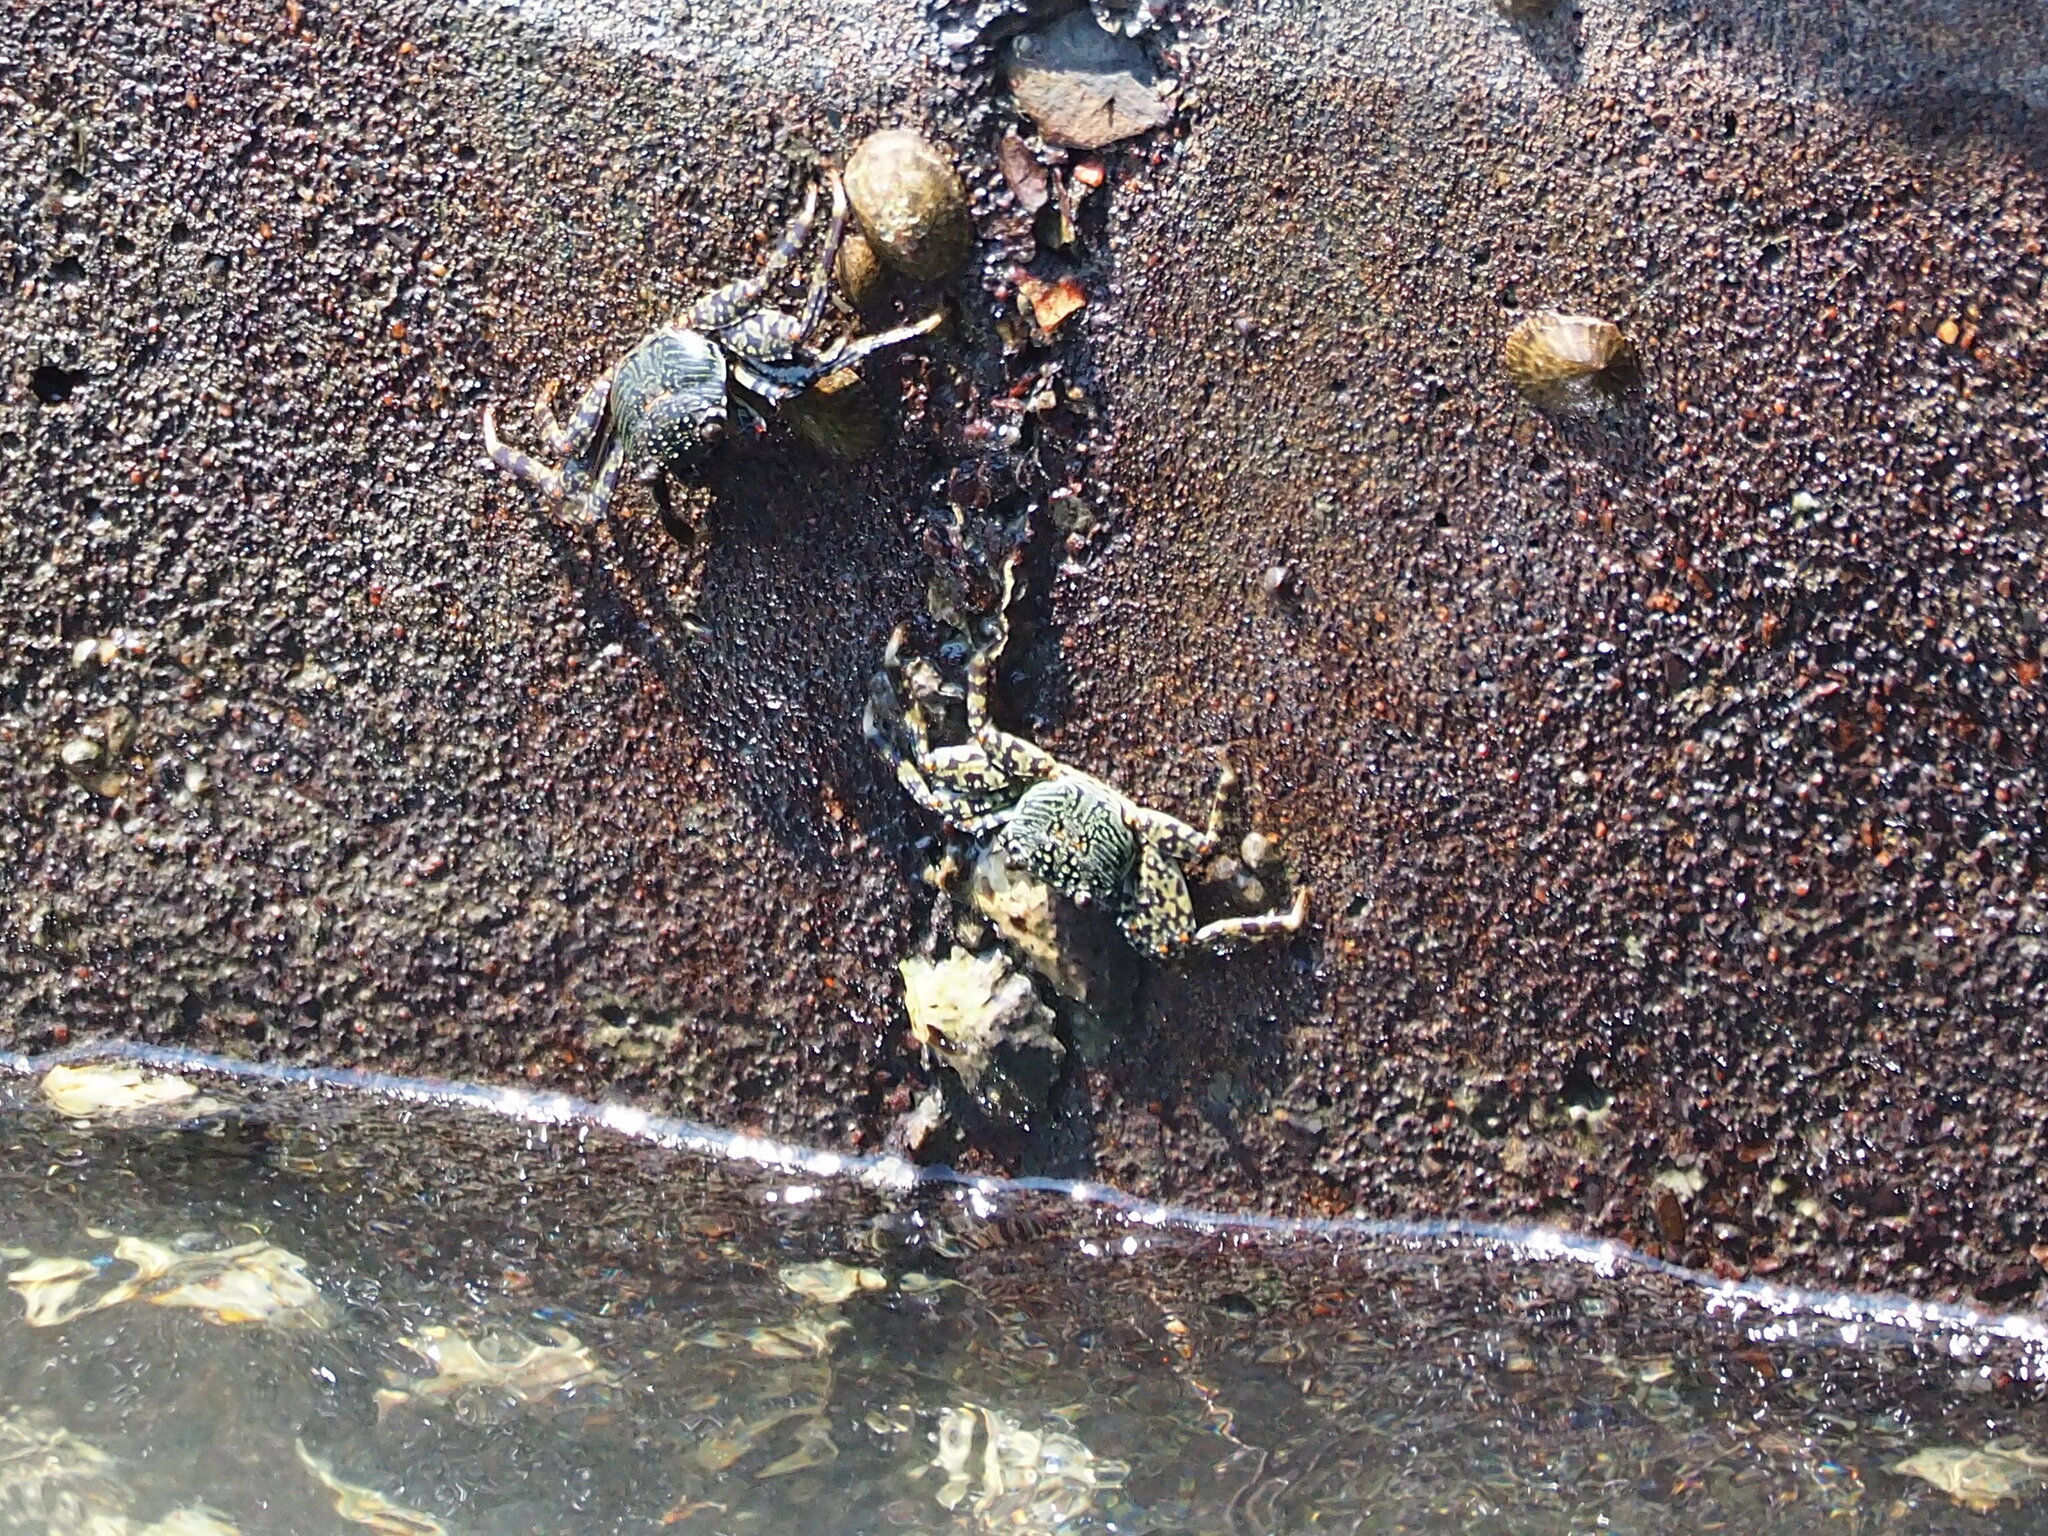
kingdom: Animalia
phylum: Arthropoda
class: Malacostraca
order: Decapoda
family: Grapsidae
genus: Grapsus
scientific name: Grapsus albolineatus
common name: Mottled lightfoot crab
